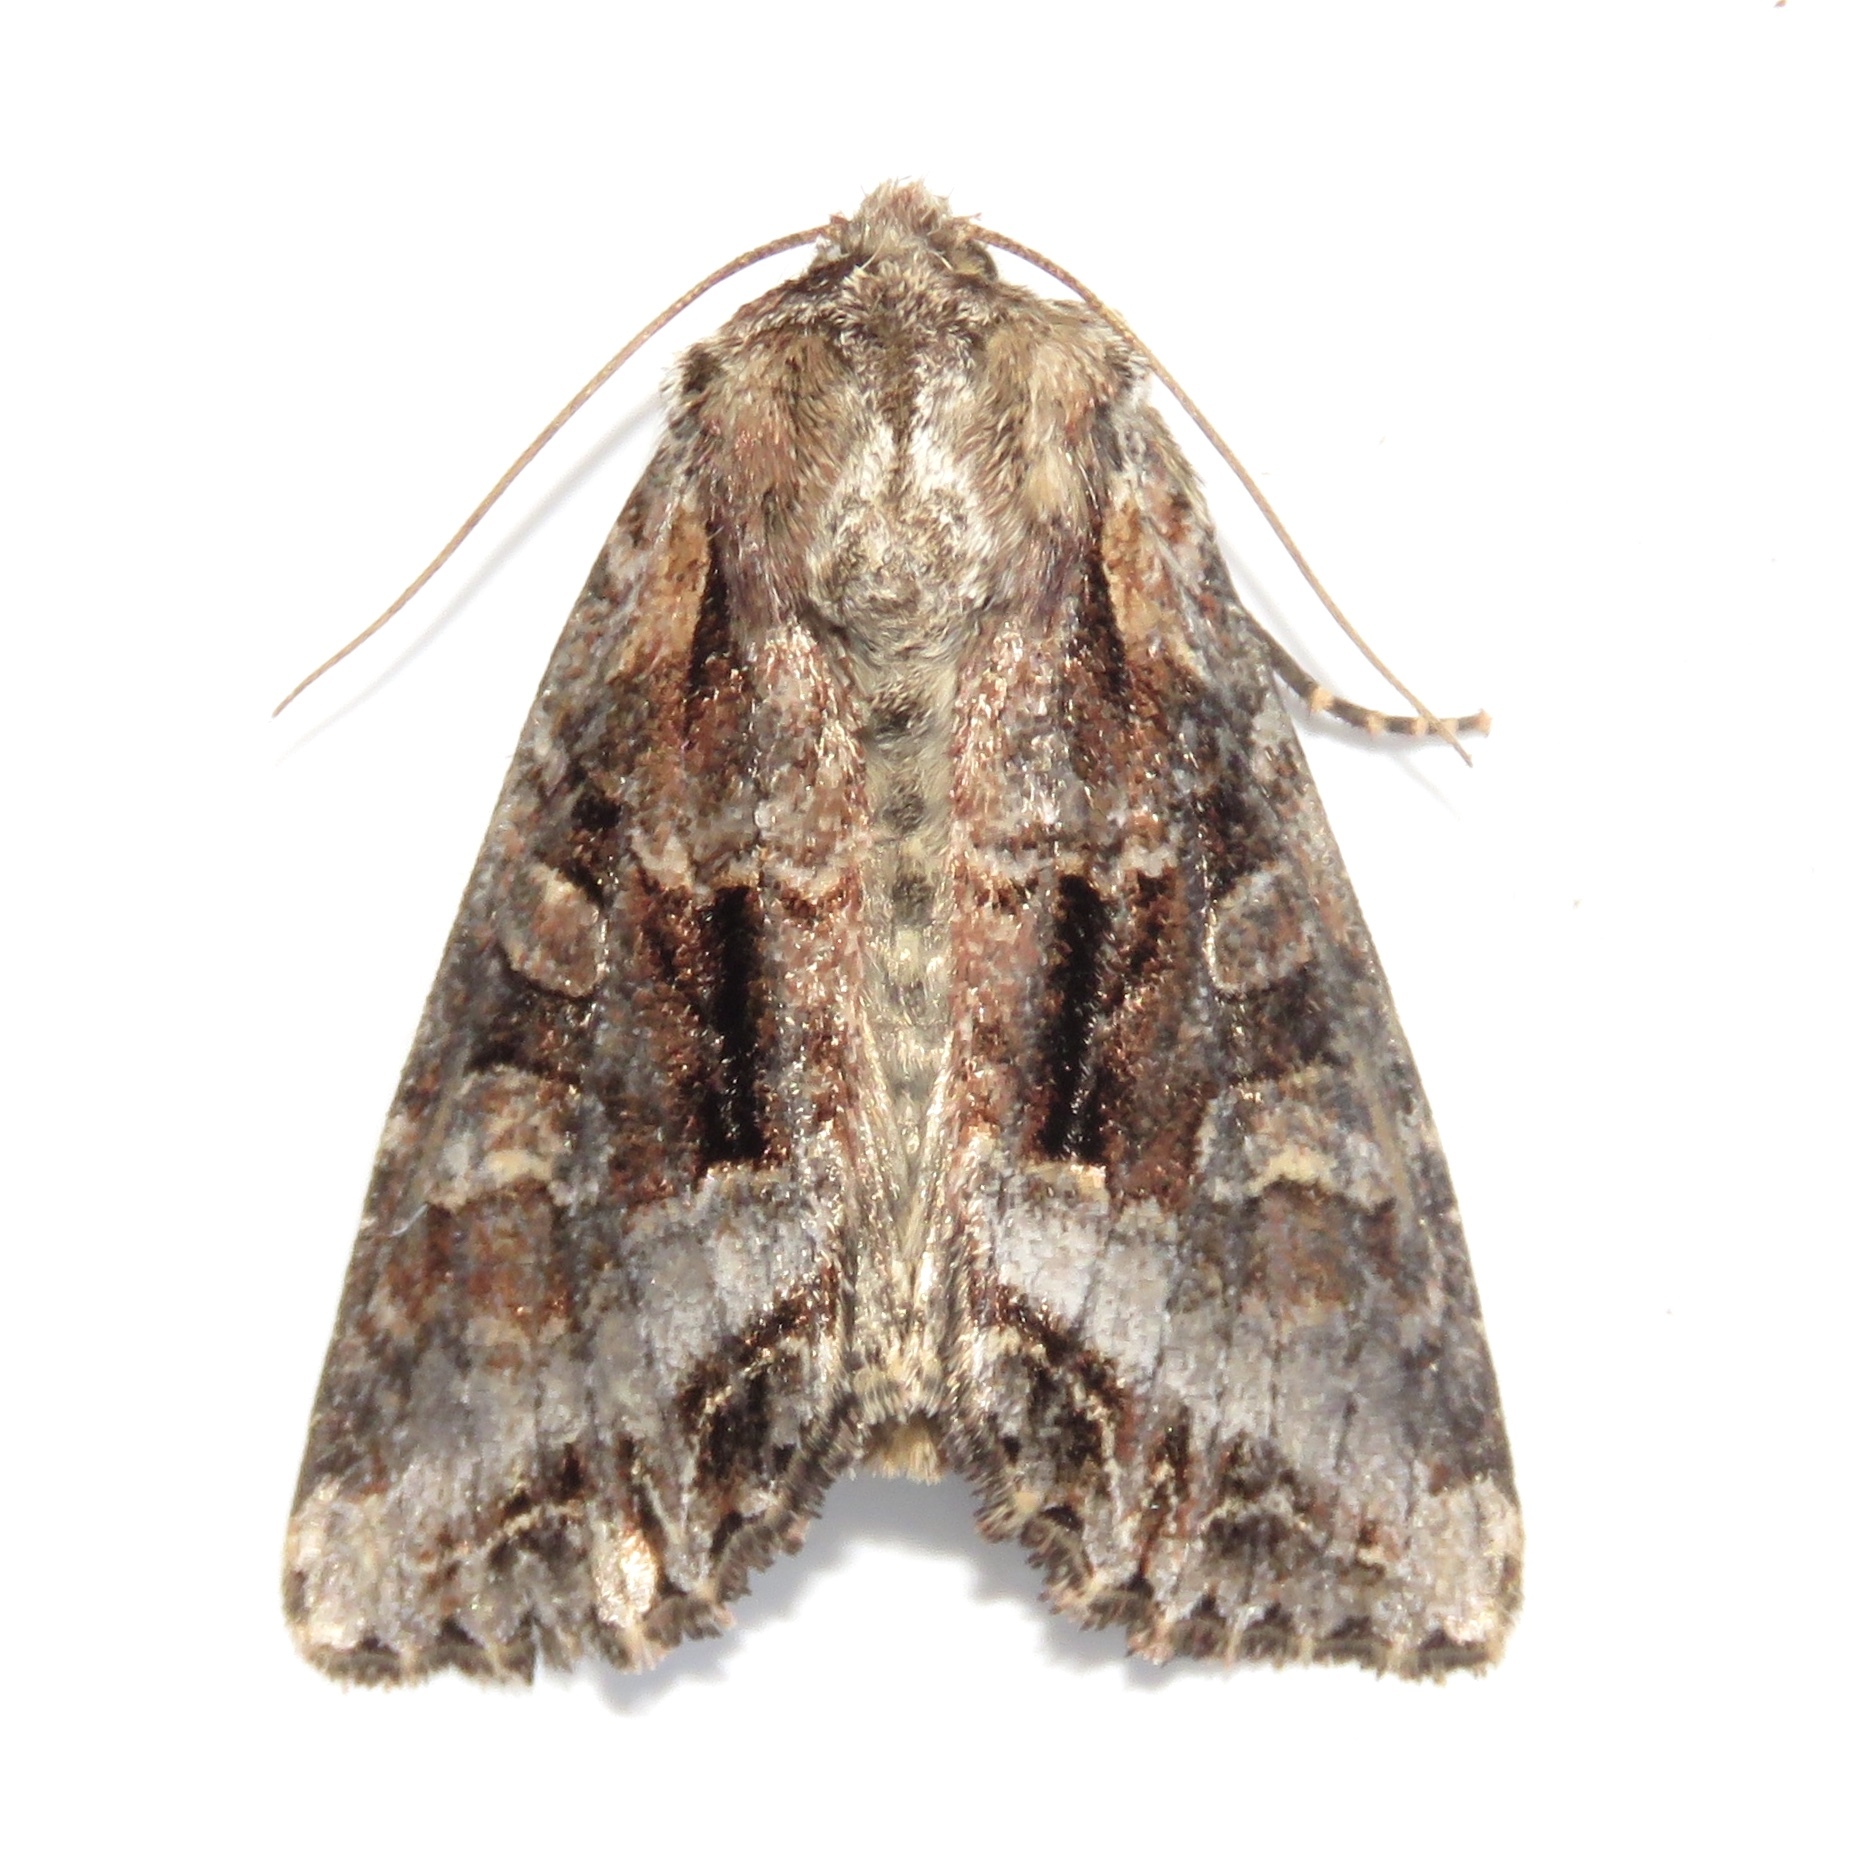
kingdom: Animalia
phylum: Arthropoda
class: Insecta
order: Lepidoptera
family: Noctuidae
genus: Lacanobia
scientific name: Lacanobia grandis
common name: Grand arches moth
